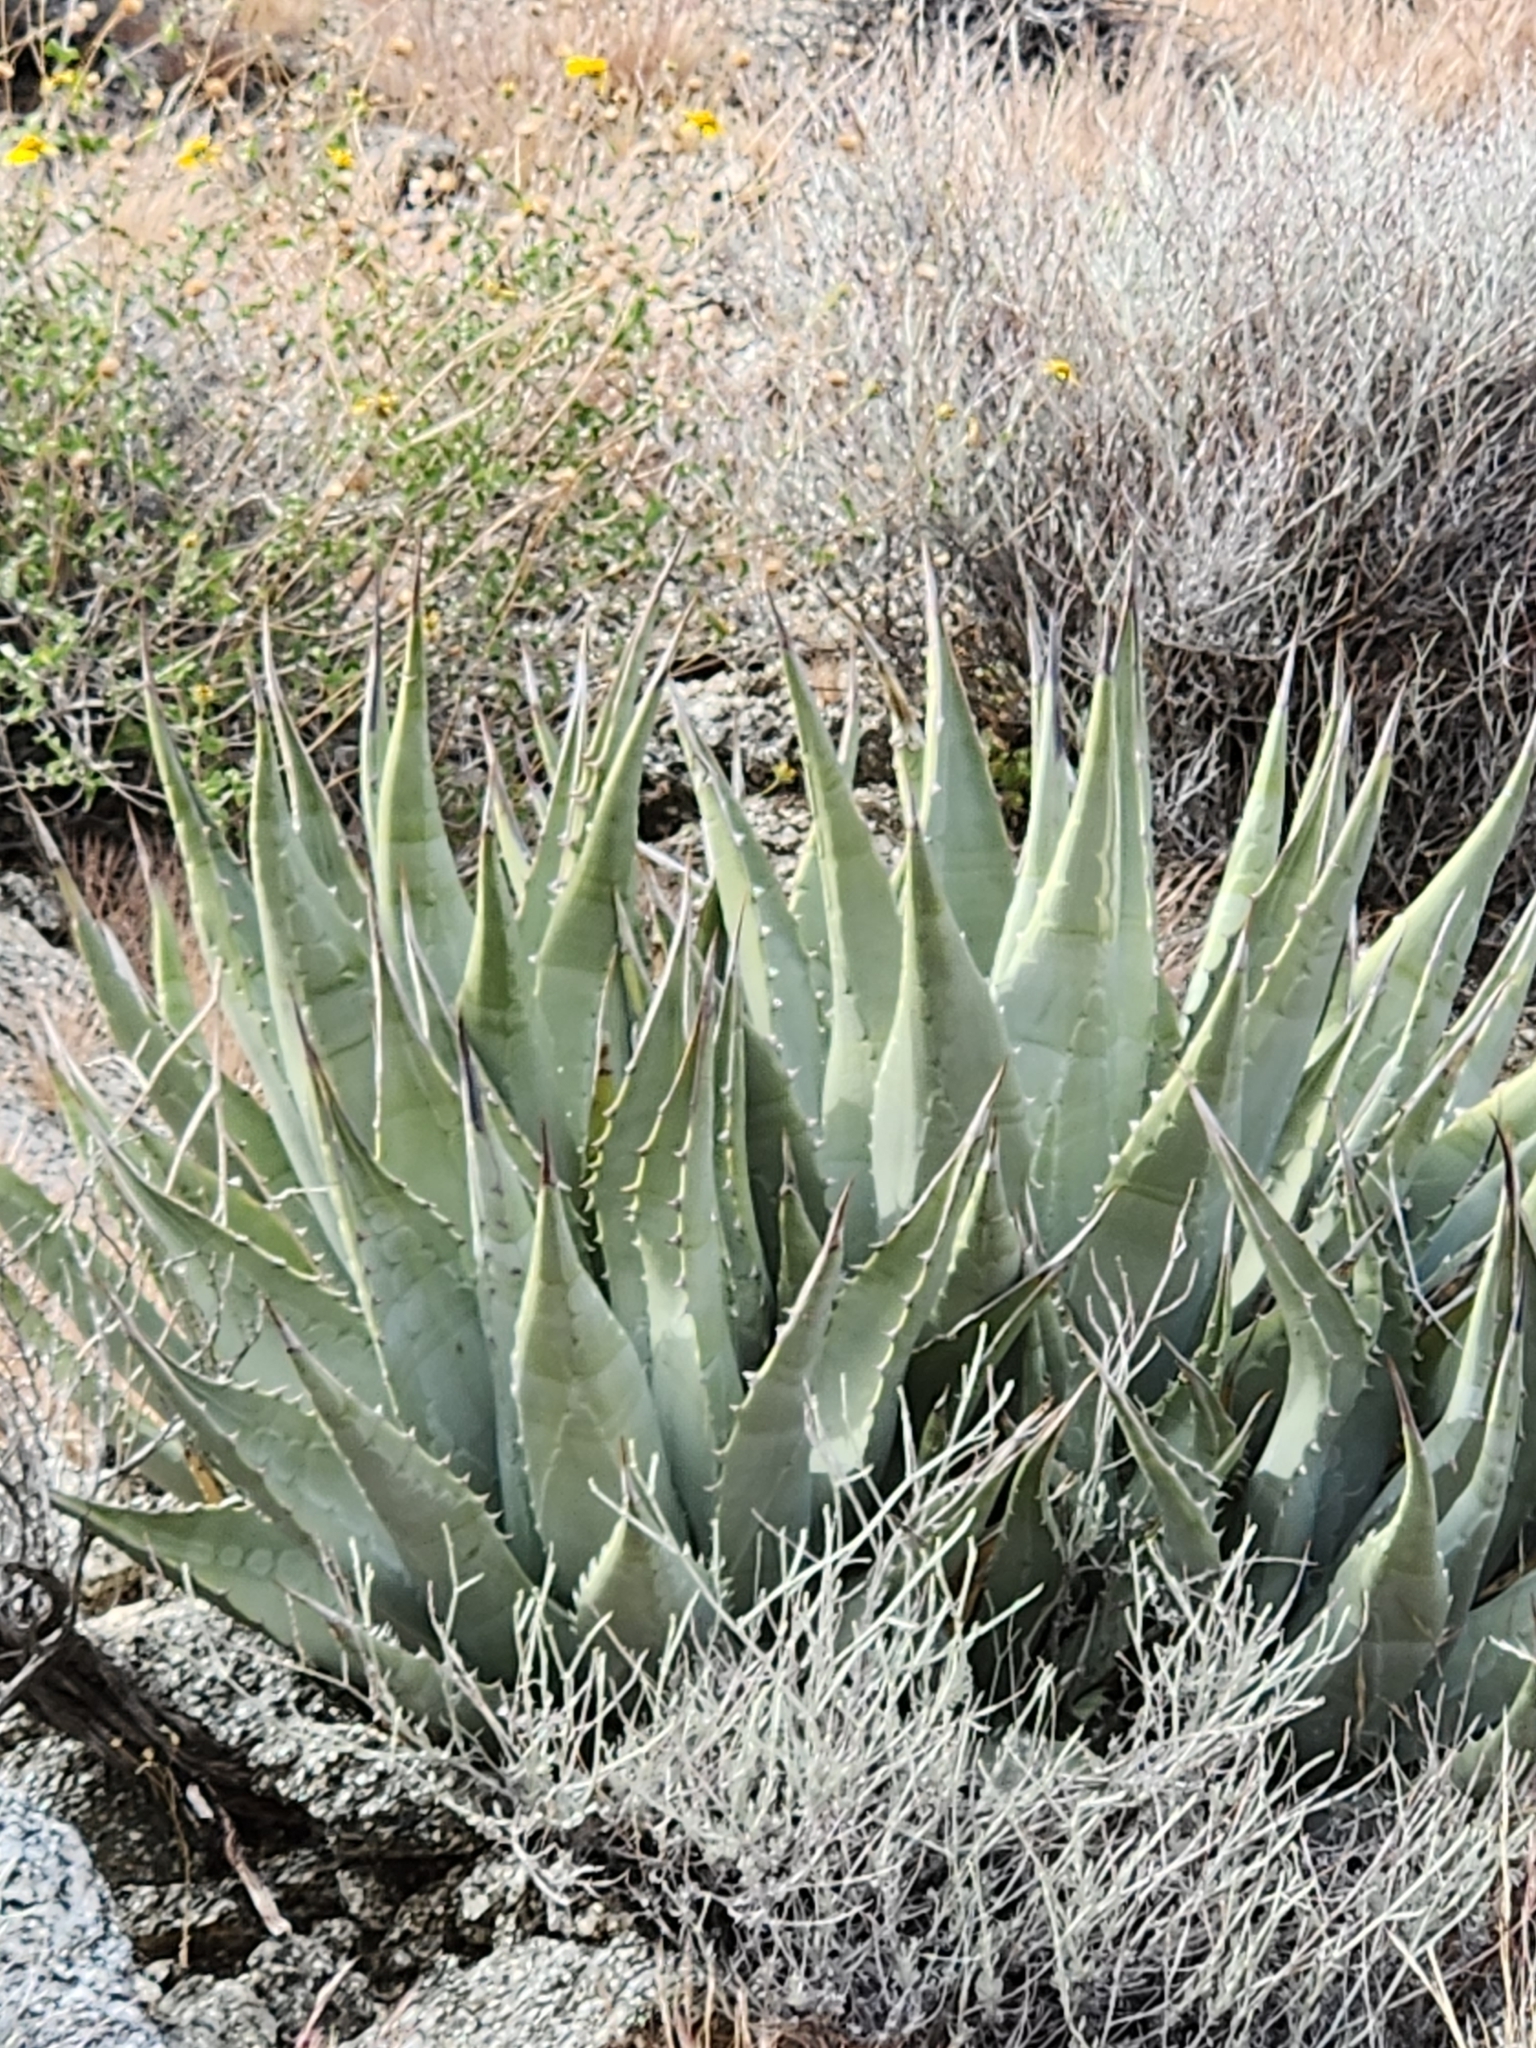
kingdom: Plantae
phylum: Tracheophyta
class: Liliopsida
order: Asparagales
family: Asparagaceae
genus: Agave
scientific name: Agave deserti
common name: Desert agave
